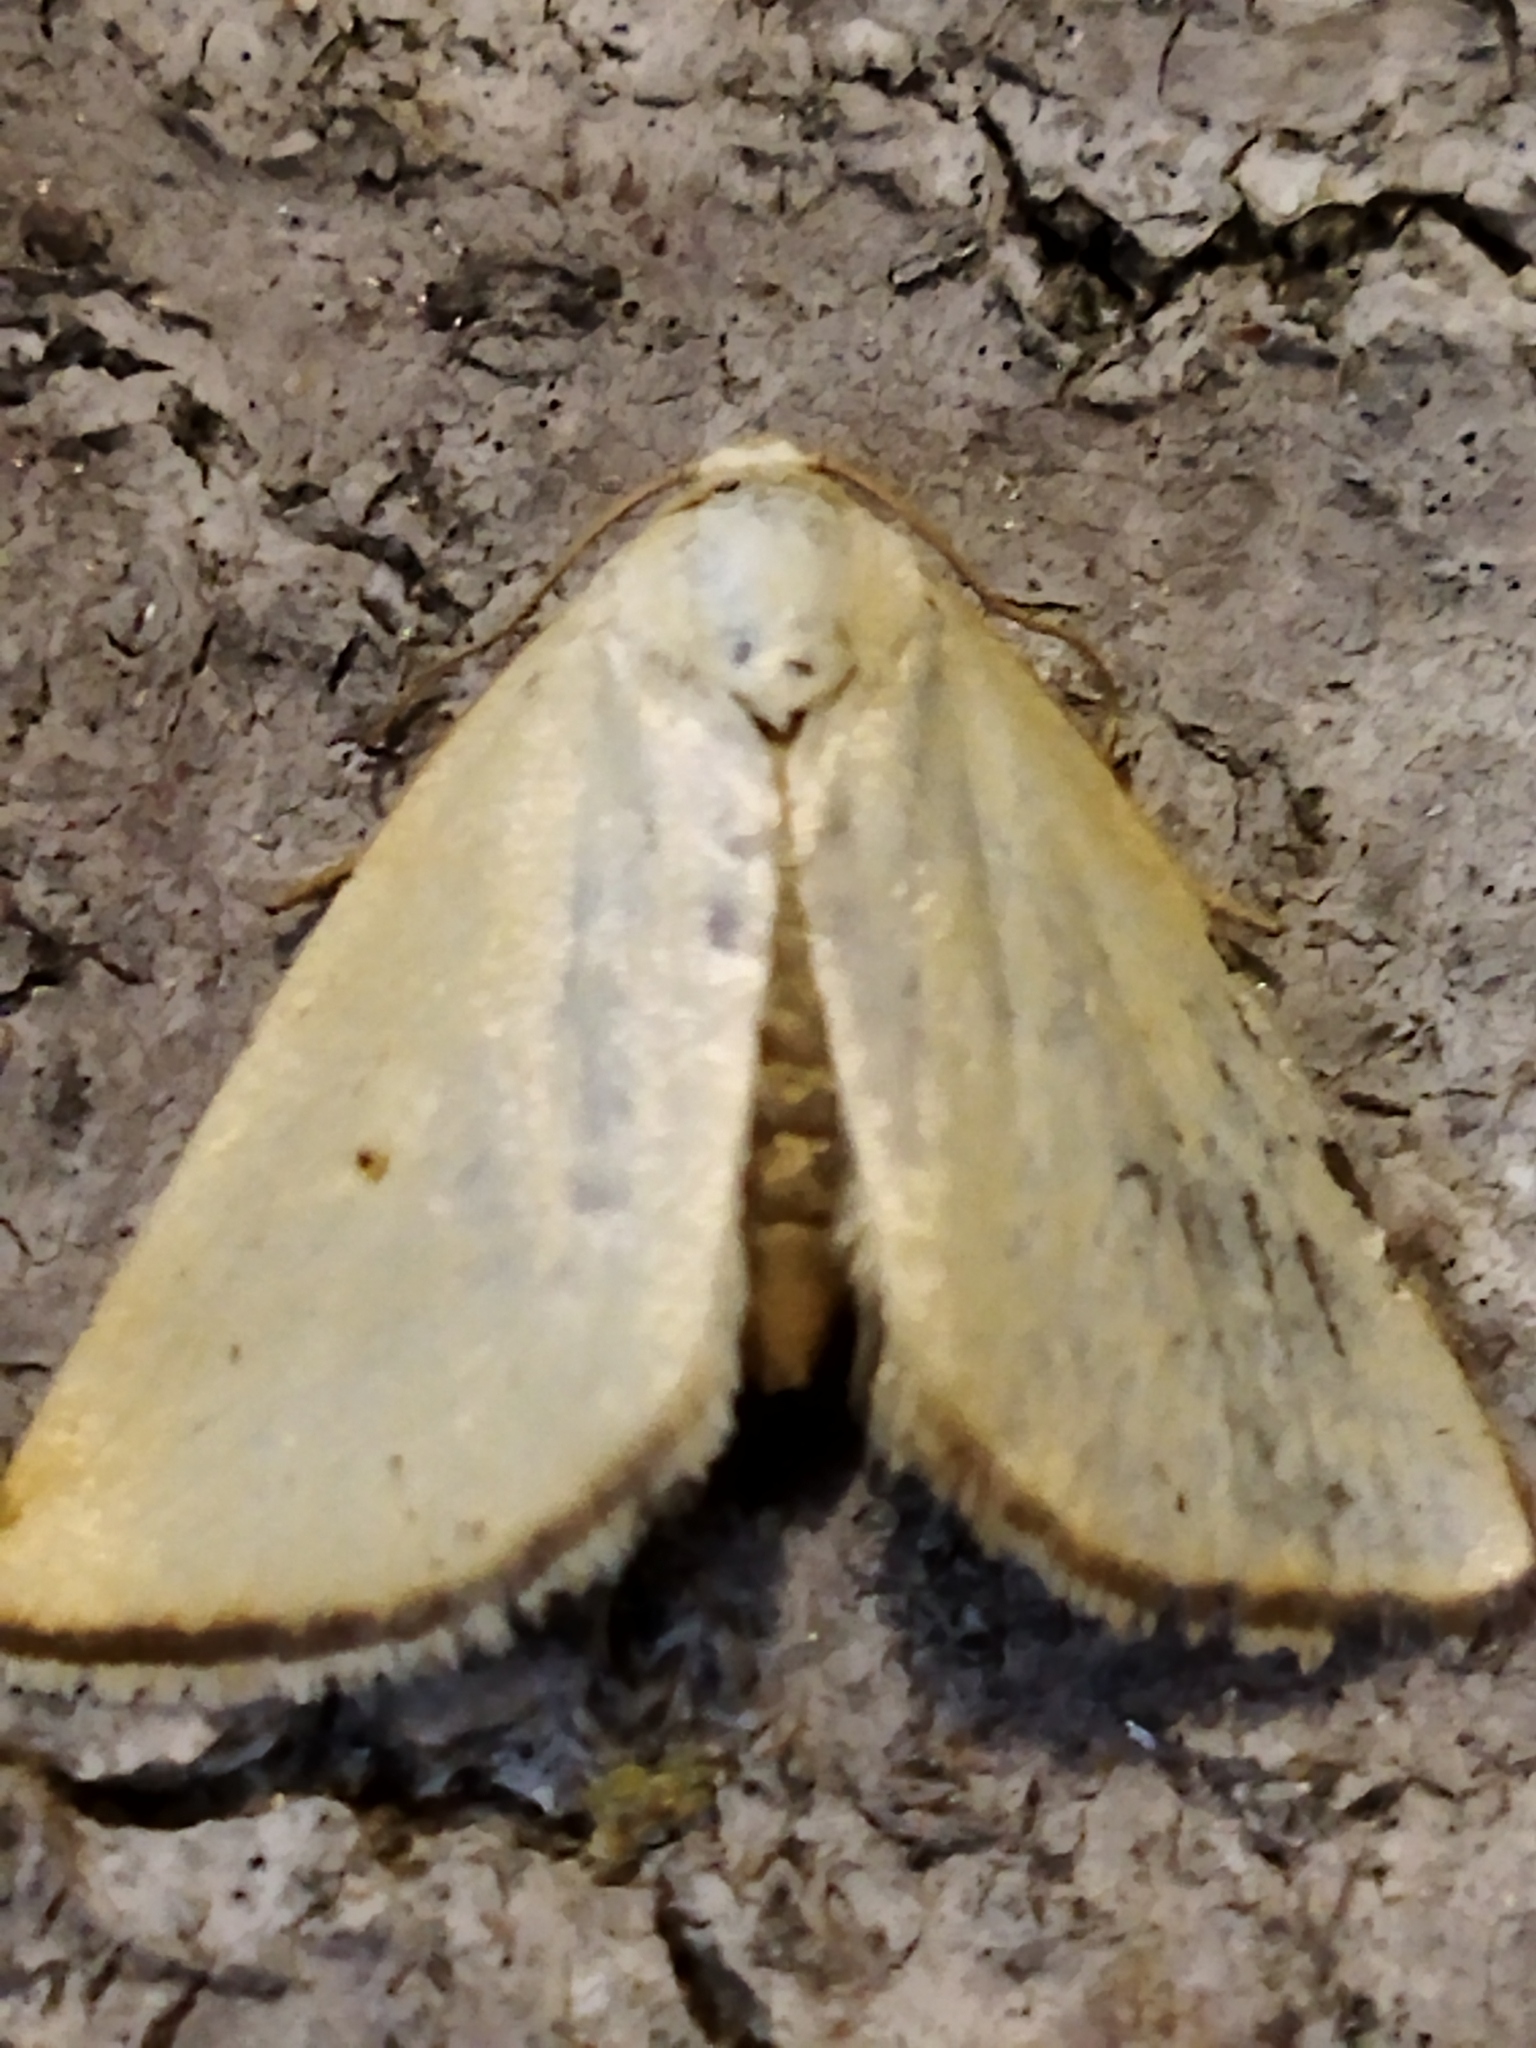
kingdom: Animalia
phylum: Arthropoda
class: Insecta
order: Lepidoptera
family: Noctuidae
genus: Aegle
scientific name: Aegle kaekeritziana
